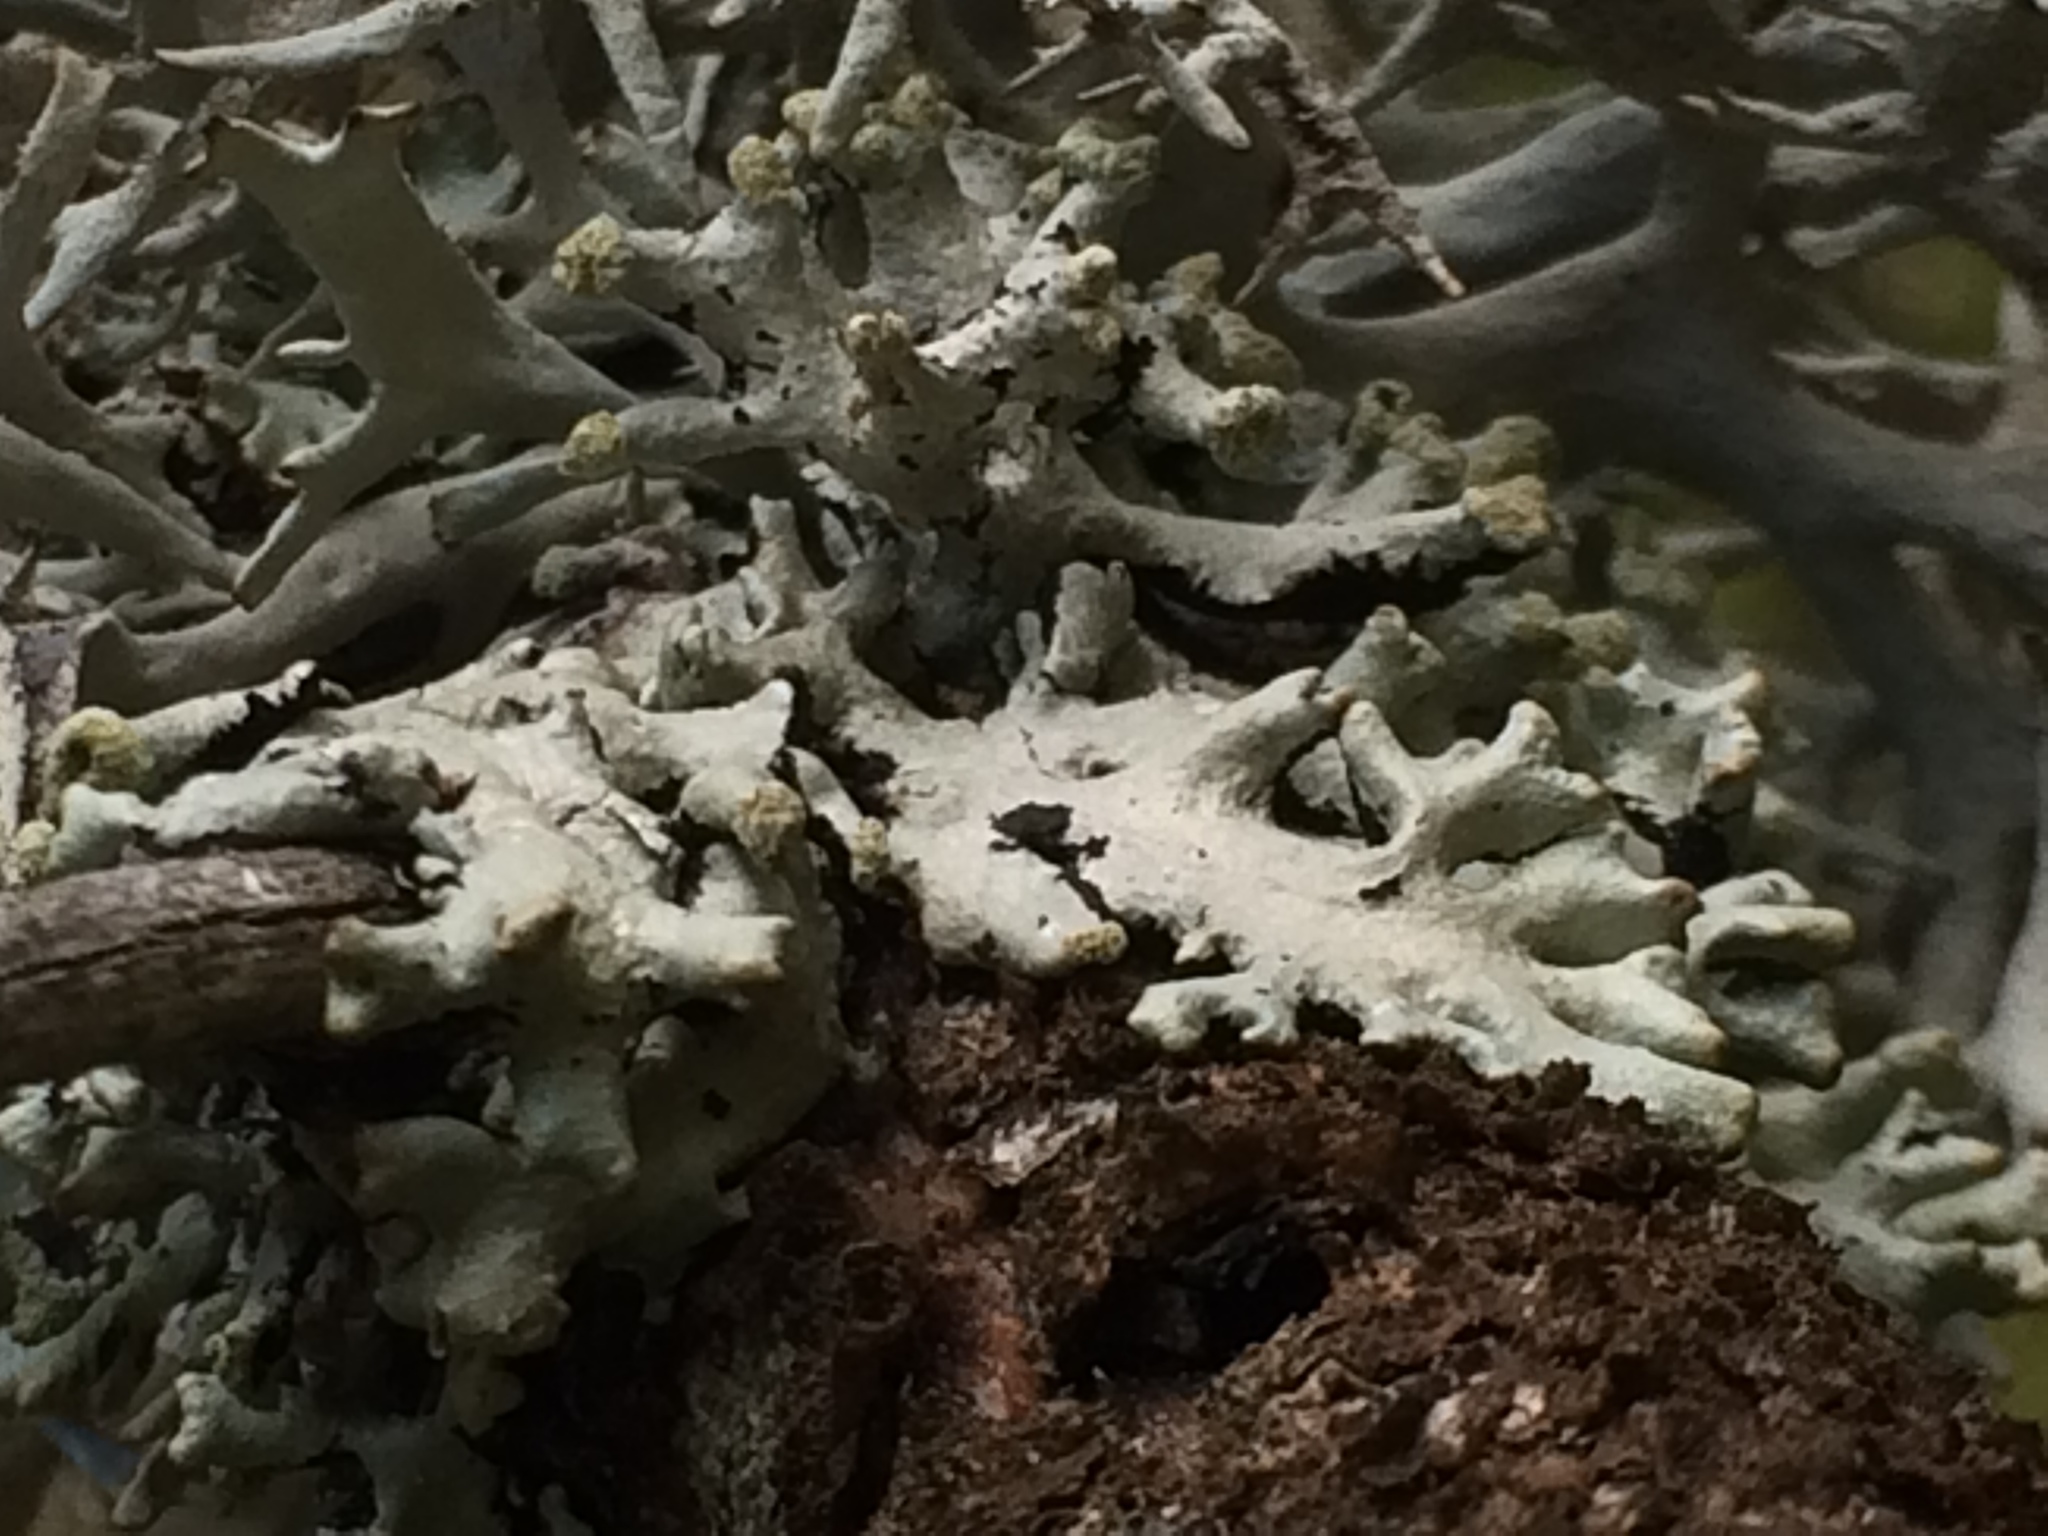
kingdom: Fungi
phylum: Ascomycota
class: Lecanoromycetes
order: Lecanorales
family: Parmeliaceae
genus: Pseudevernia
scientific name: Pseudevernia furfuracea
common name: Tree moss
